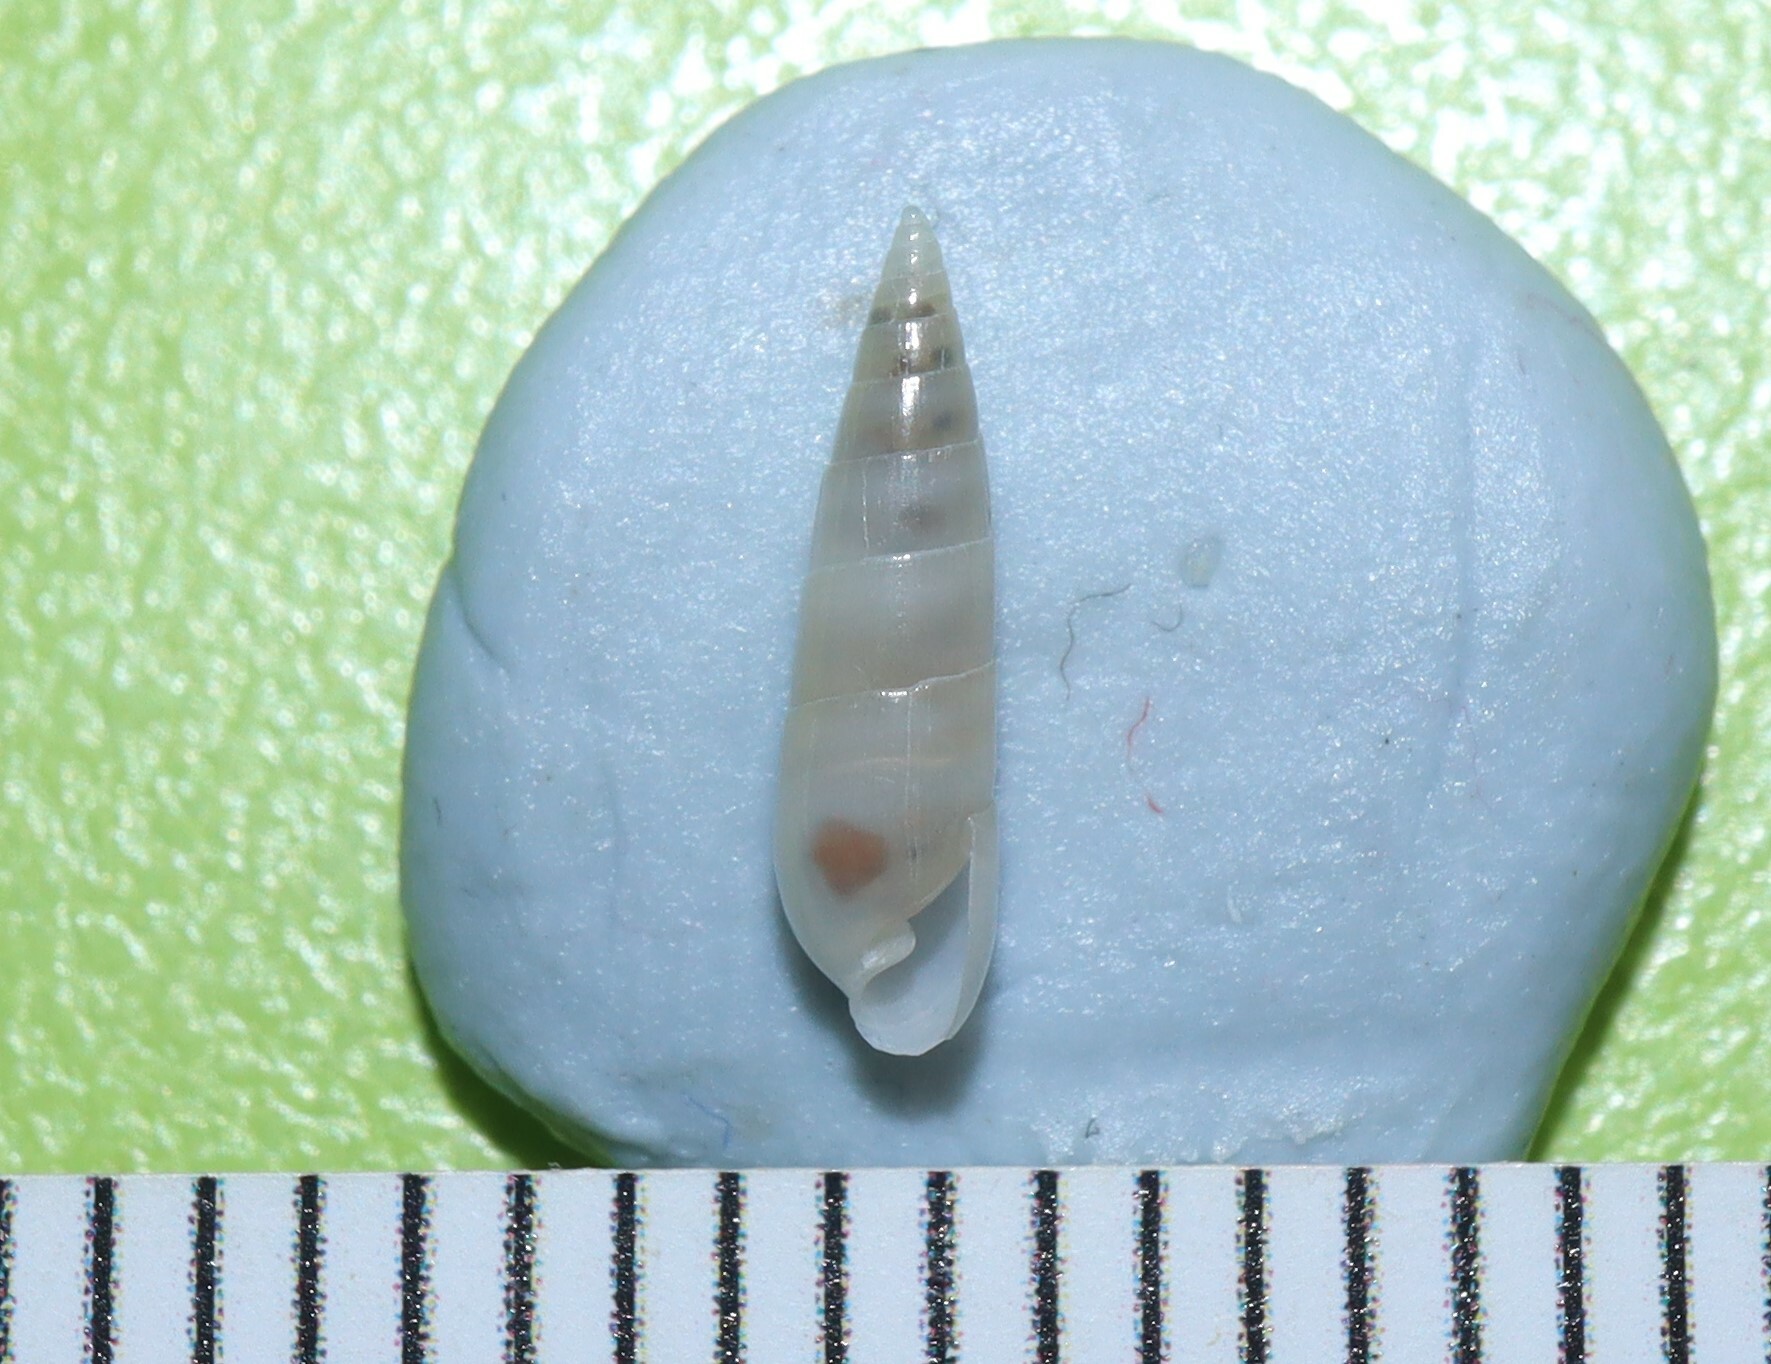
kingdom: Animalia
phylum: Mollusca
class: Gastropoda
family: Pyramidellidae
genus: Agatha
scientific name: Agatha manifesta
